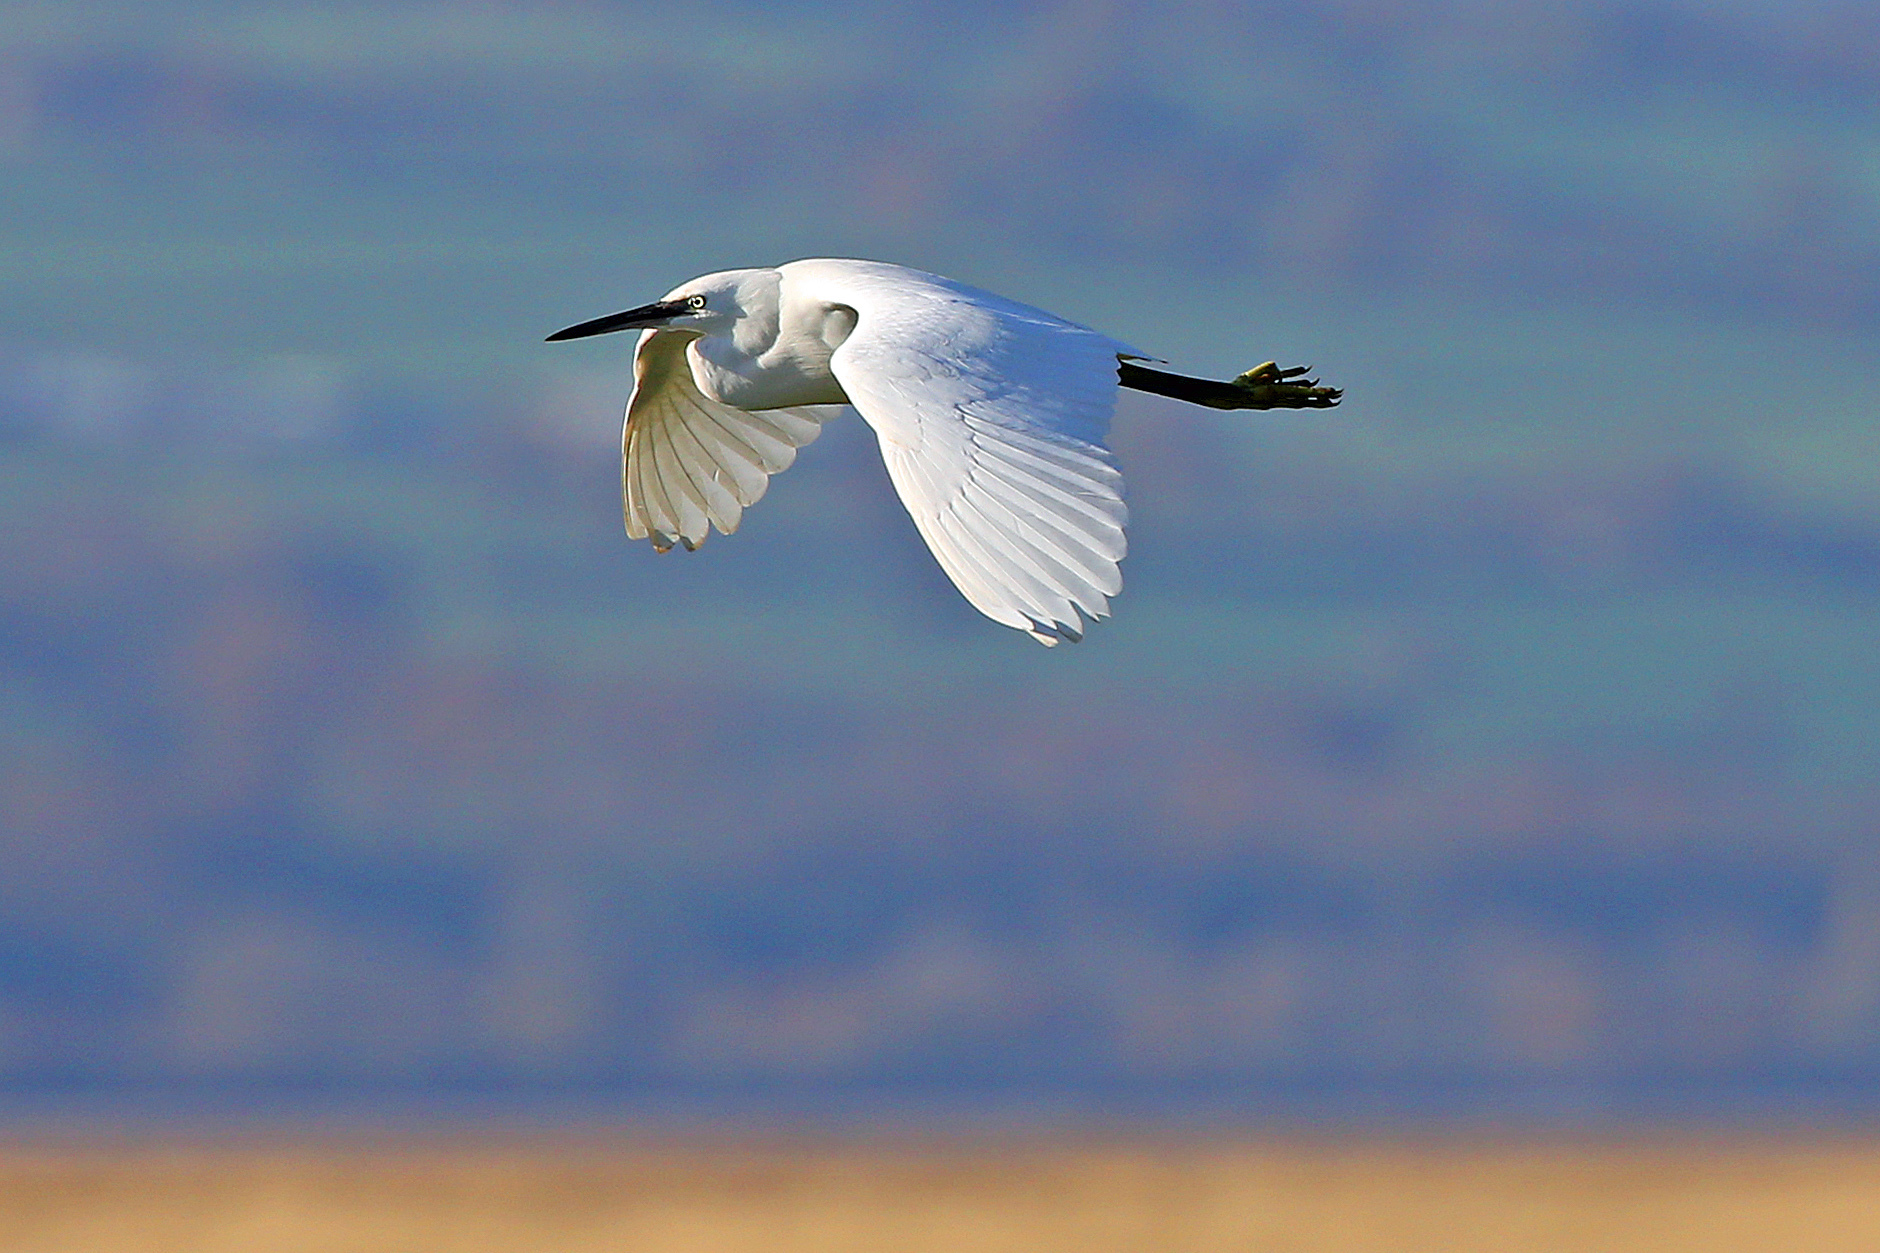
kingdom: Animalia
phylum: Chordata
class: Aves
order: Pelecaniformes
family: Ardeidae
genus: Egretta
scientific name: Egretta garzetta
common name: Little egret
